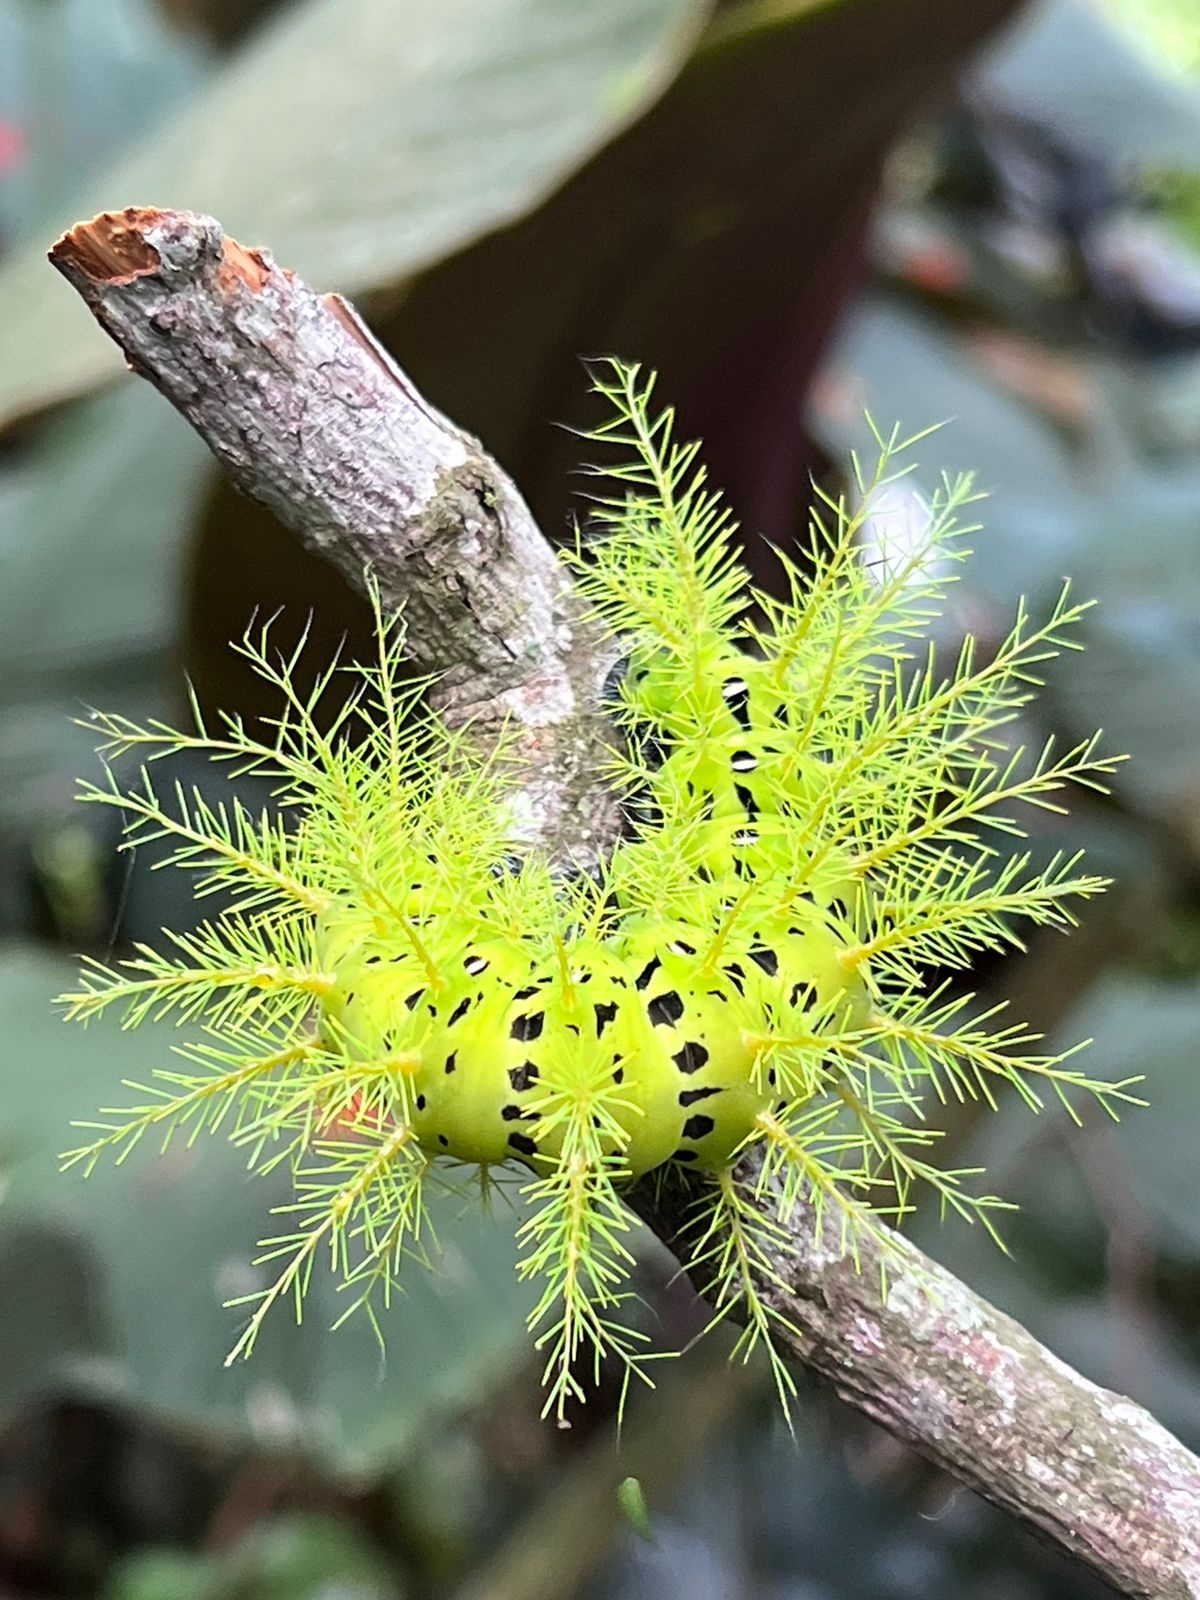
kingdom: Animalia
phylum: Arthropoda
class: Insecta
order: Lepidoptera
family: Saturniidae
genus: Automeris
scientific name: Automeris metzli
